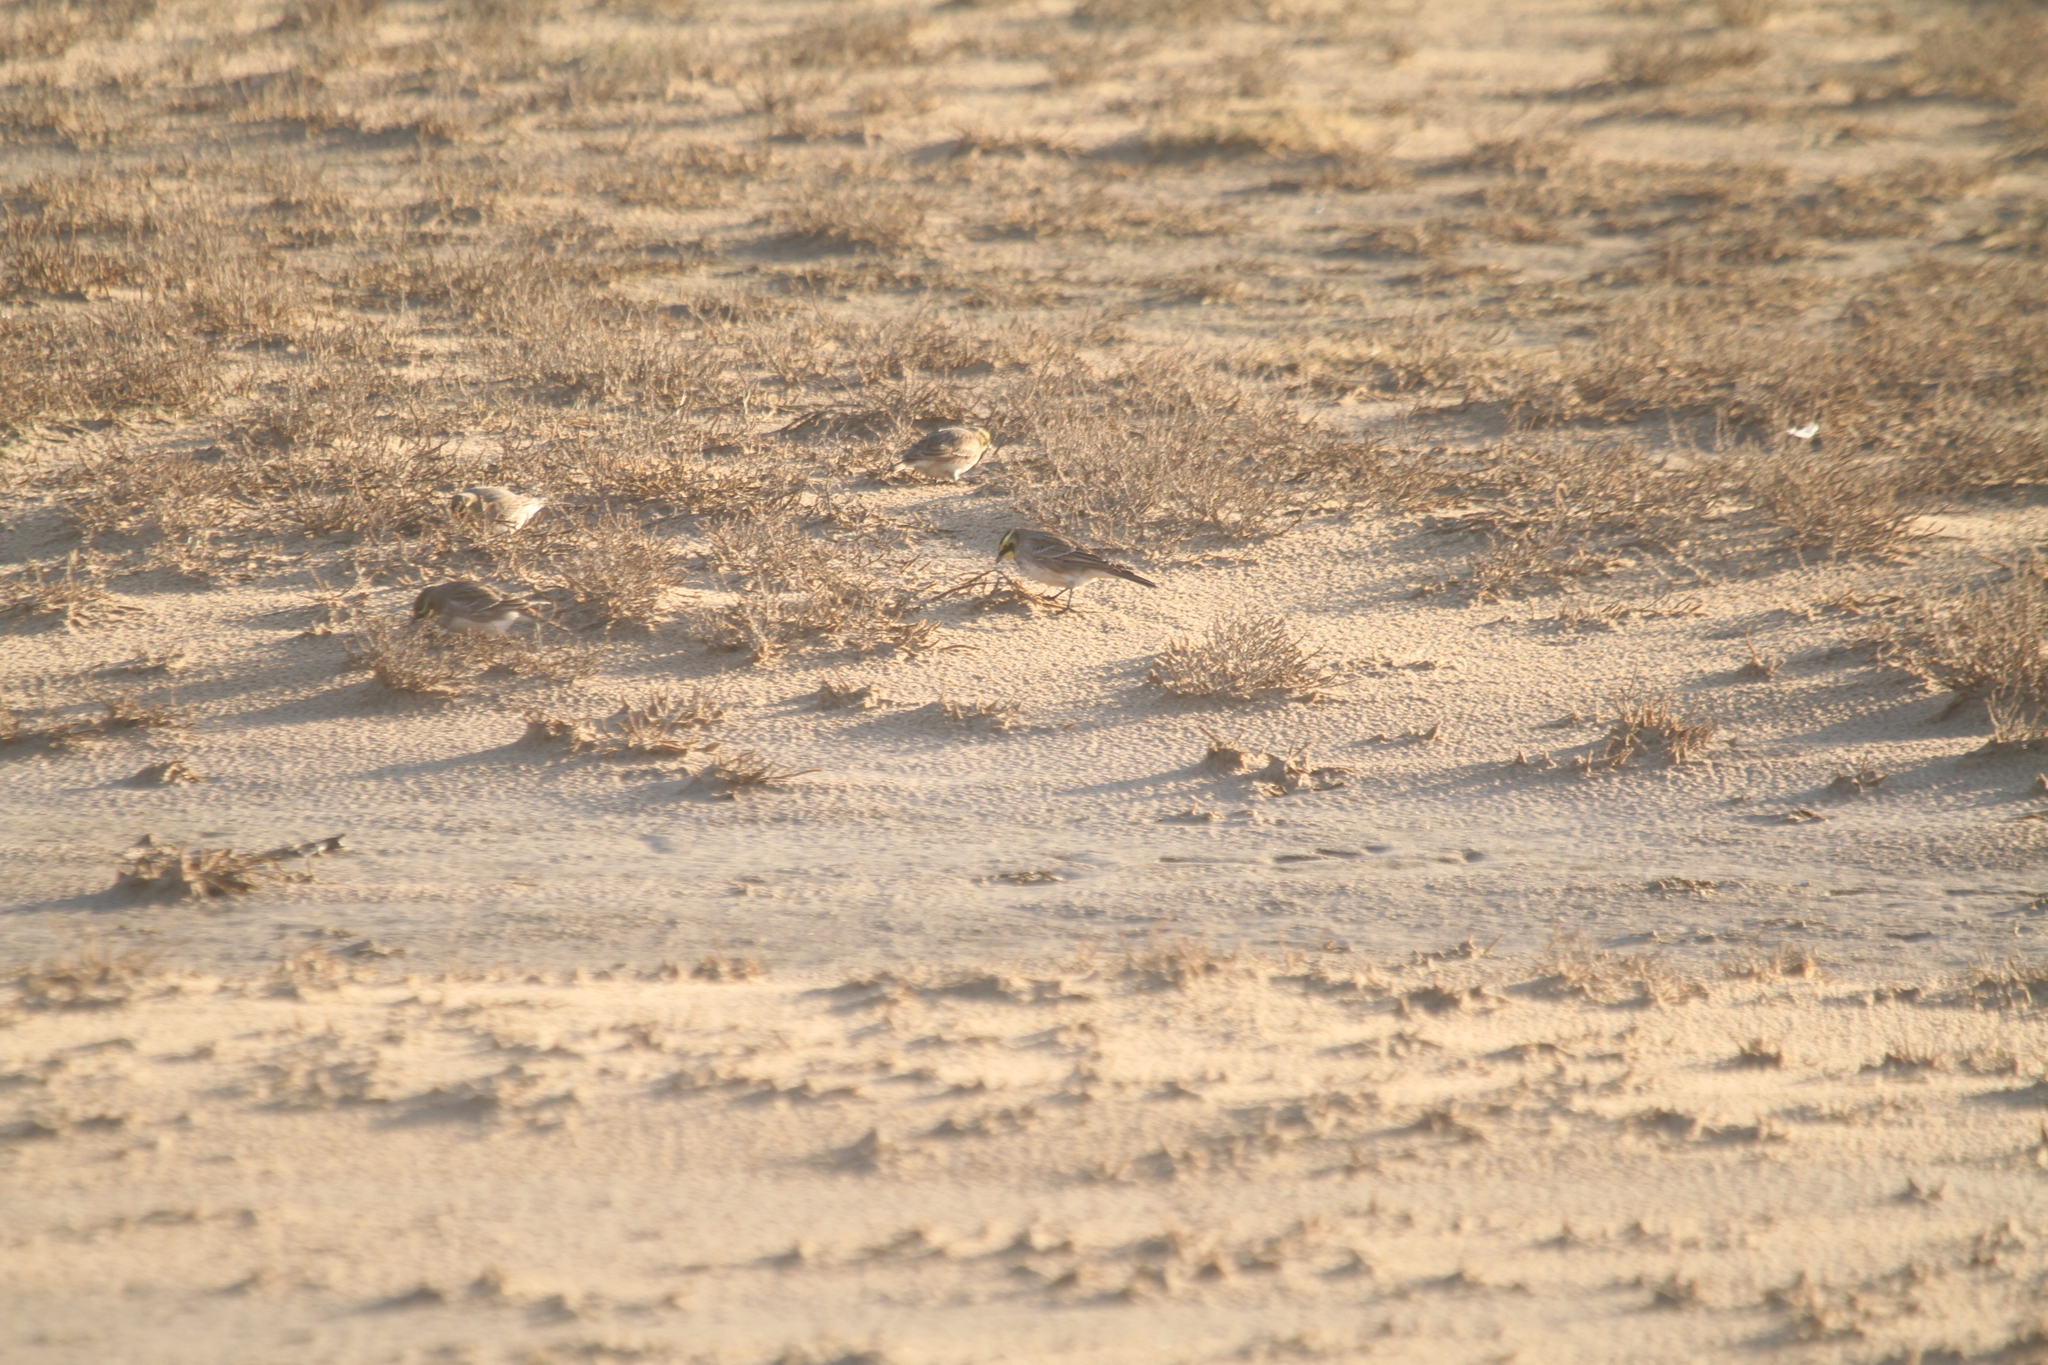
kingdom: Animalia
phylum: Chordata
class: Aves
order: Passeriformes
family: Alaudidae
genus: Eremophila
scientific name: Eremophila alpestris
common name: Horned lark
